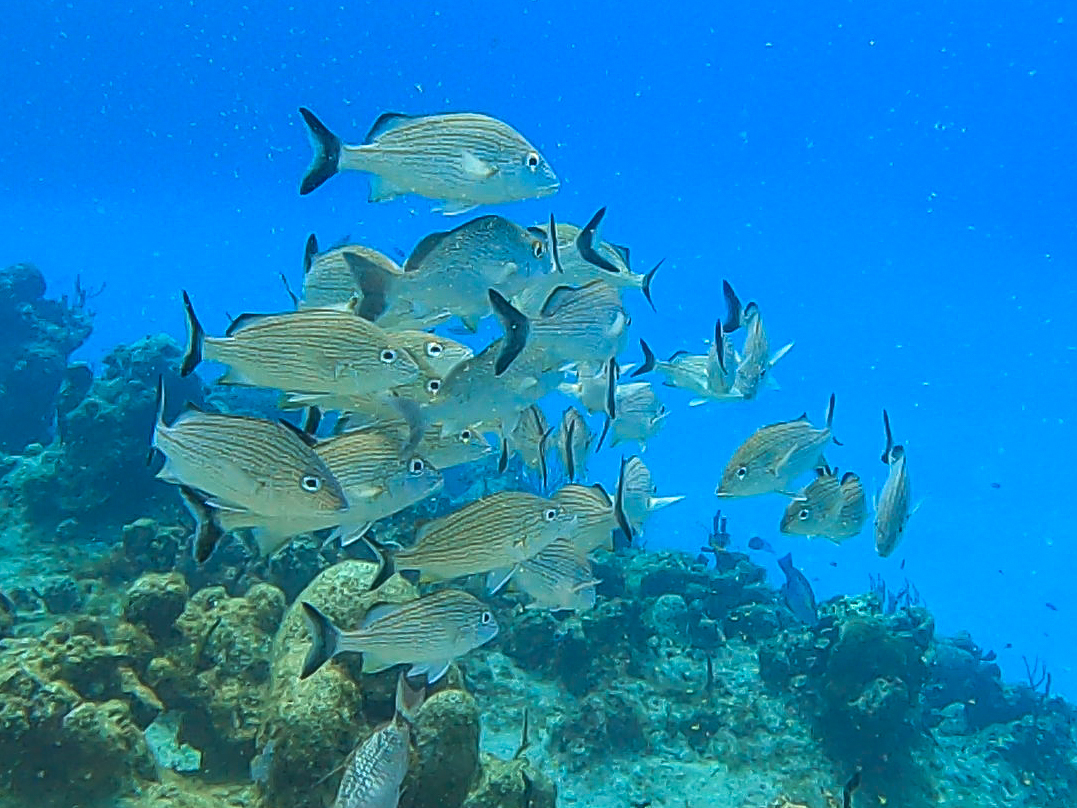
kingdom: Animalia
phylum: Chordata
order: Perciformes
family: Haemulidae
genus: Haemulon
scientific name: Haemulon carbonarium
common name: Caesar grunt
